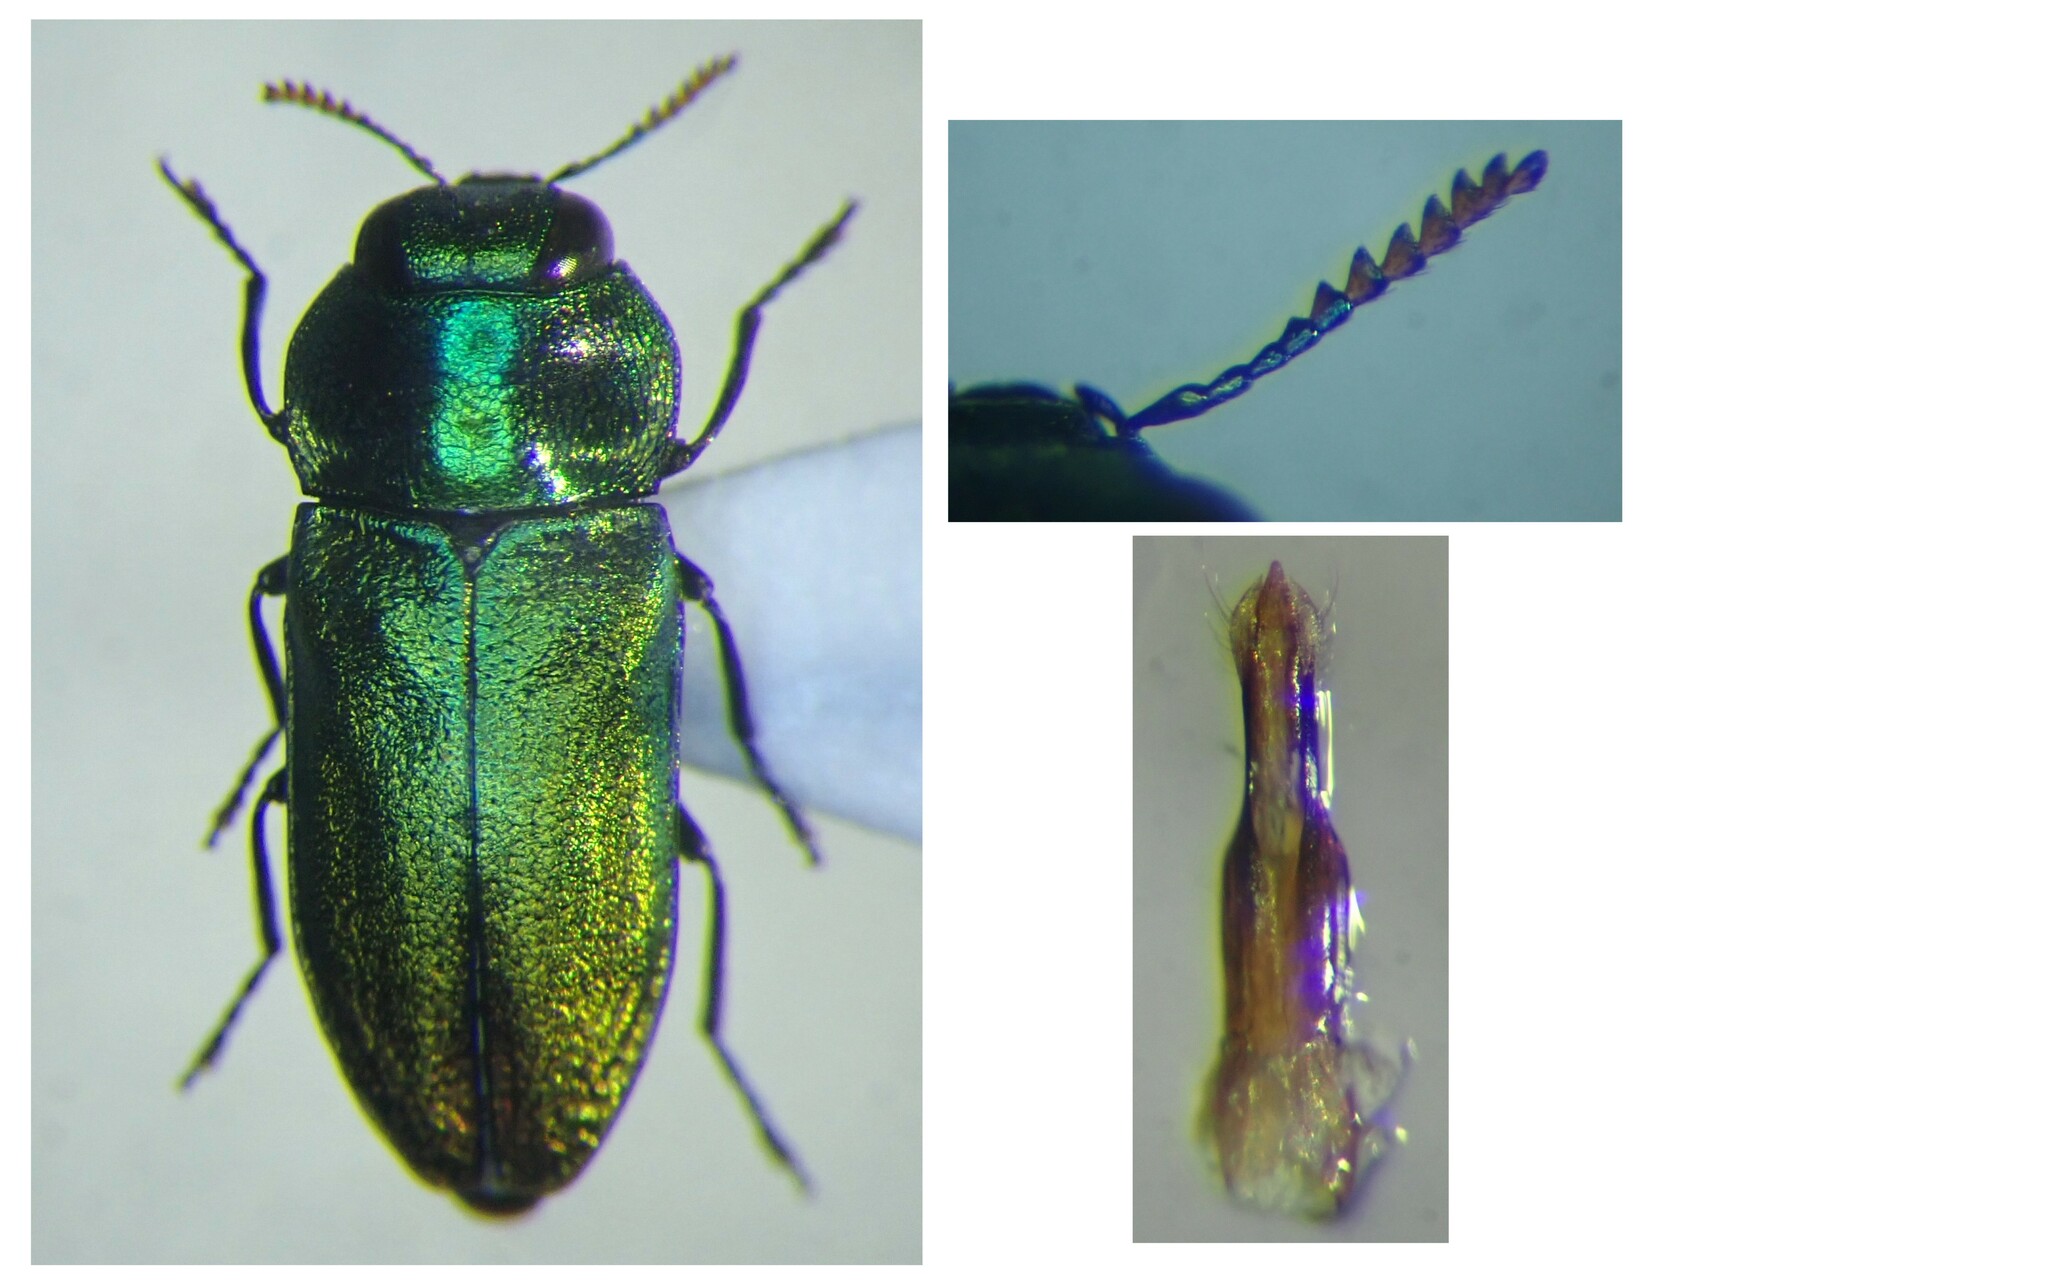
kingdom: Animalia
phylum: Arthropoda
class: Insecta
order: Coleoptera
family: Buprestidae
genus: Anthaxia
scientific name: Anthaxia thalassophila
